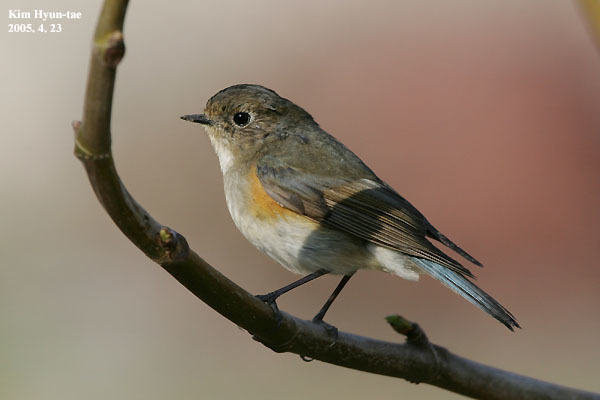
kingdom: Animalia
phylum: Chordata
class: Aves
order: Passeriformes
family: Muscicapidae
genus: Tarsiger
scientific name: Tarsiger cyanurus
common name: Red-flanked bluetail
